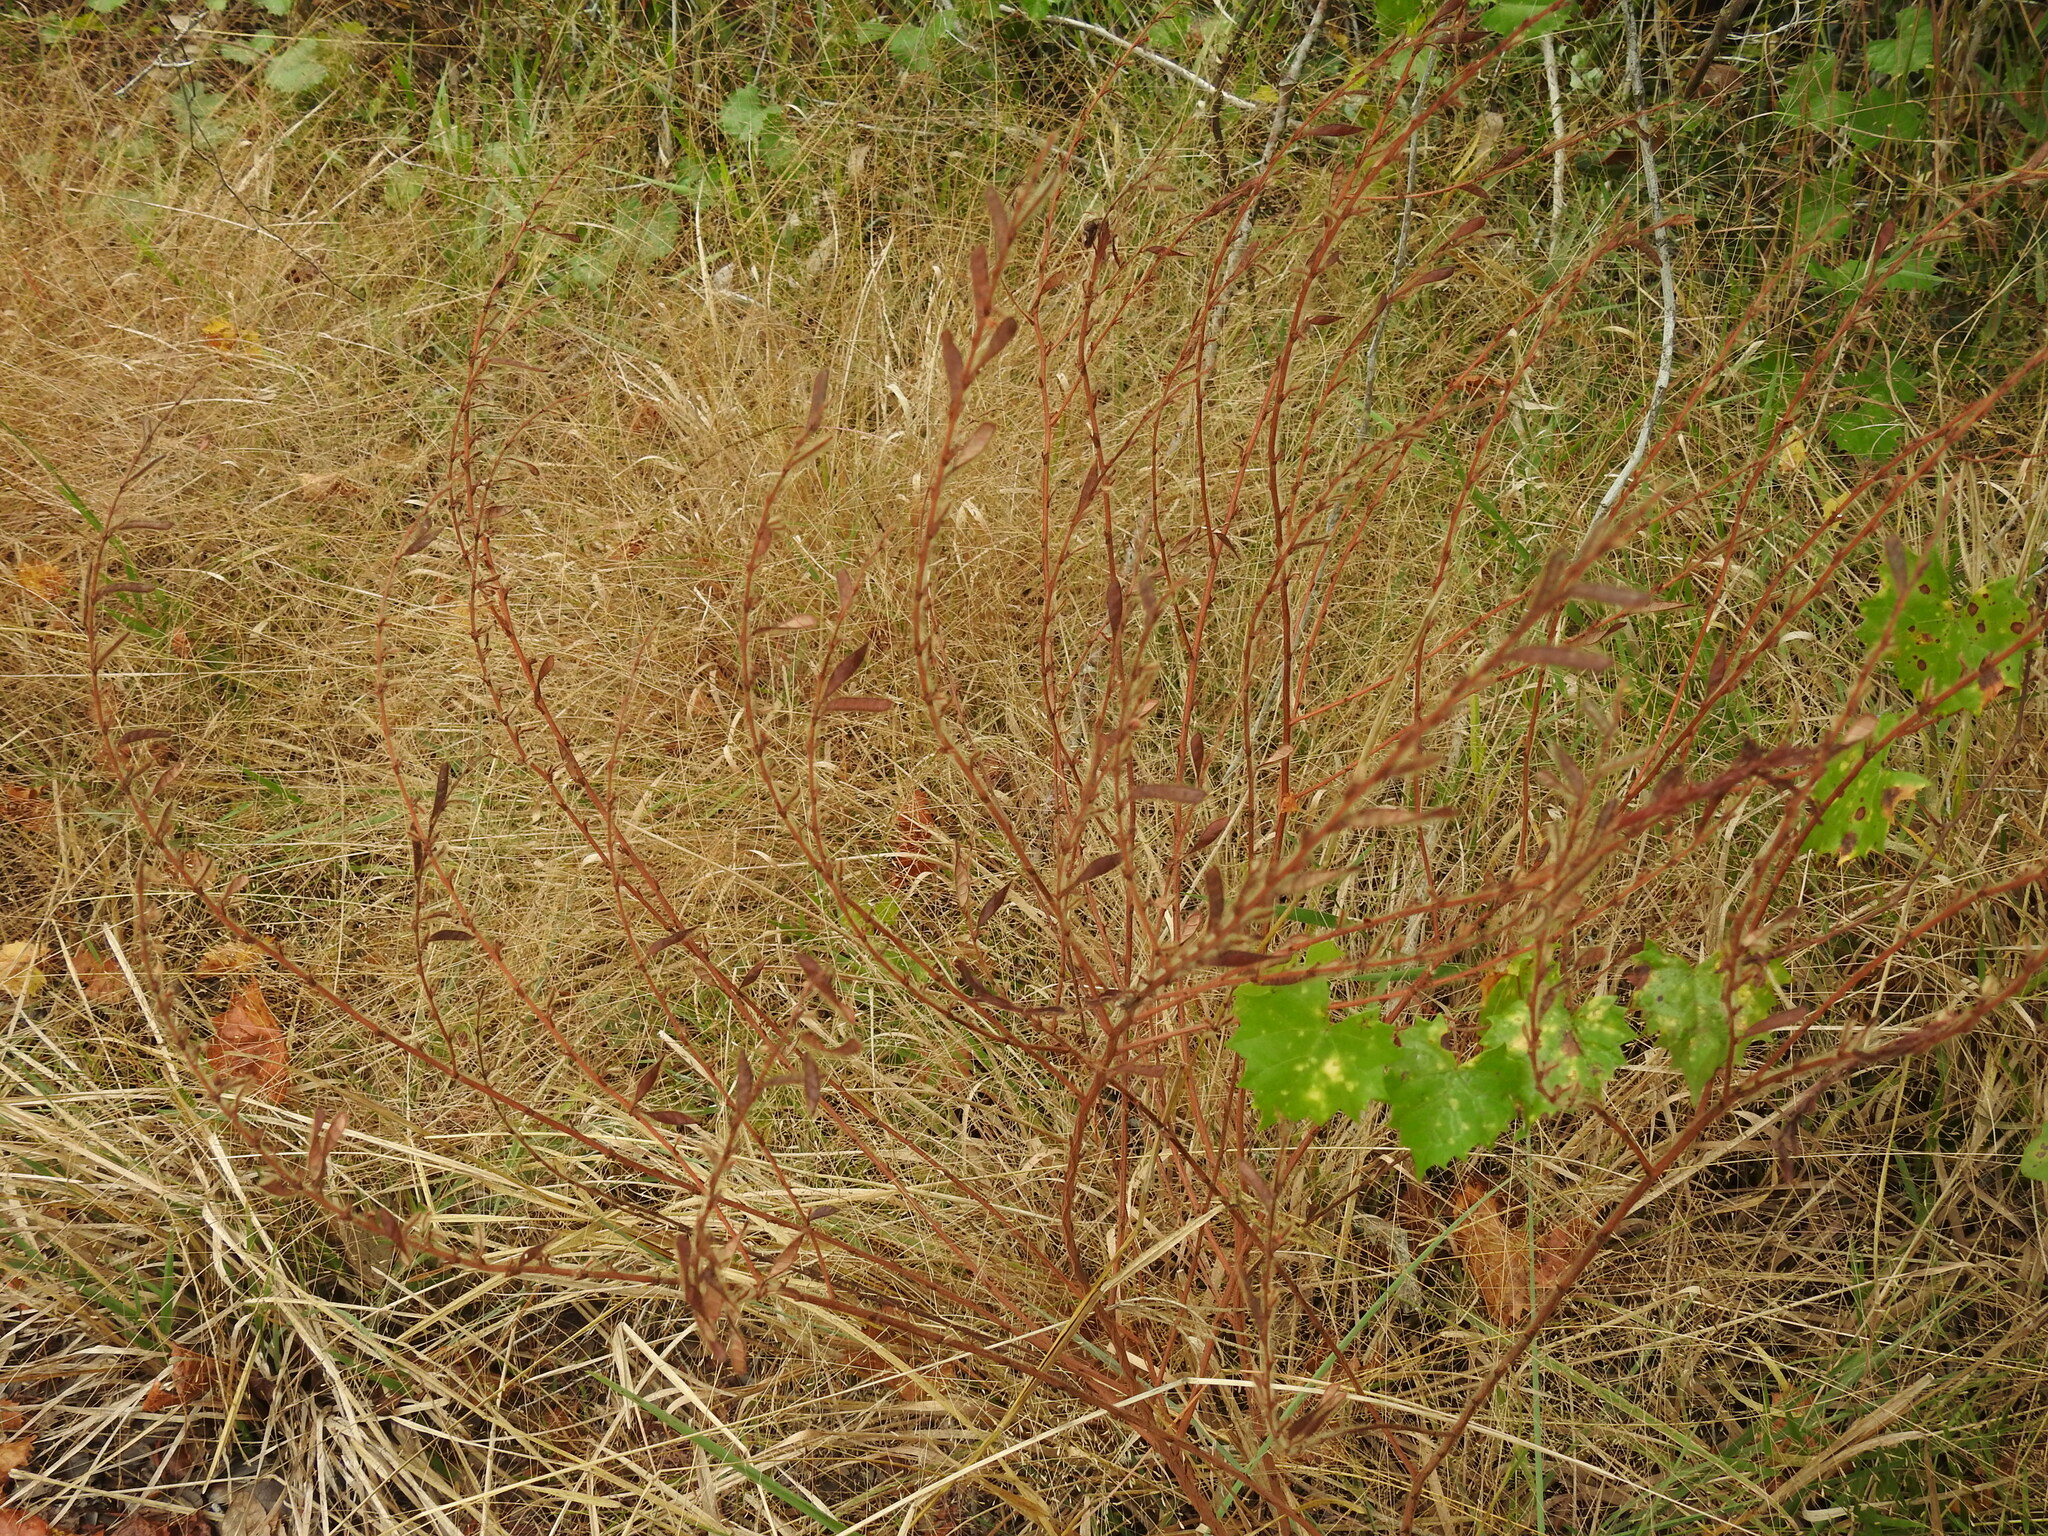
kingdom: Plantae
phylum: Tracheophyta
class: Magnoliopsida
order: Fabales
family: Fabaceae
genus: Chamaecrista
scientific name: Chamaecrista nictitans
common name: Sensitive cassia
